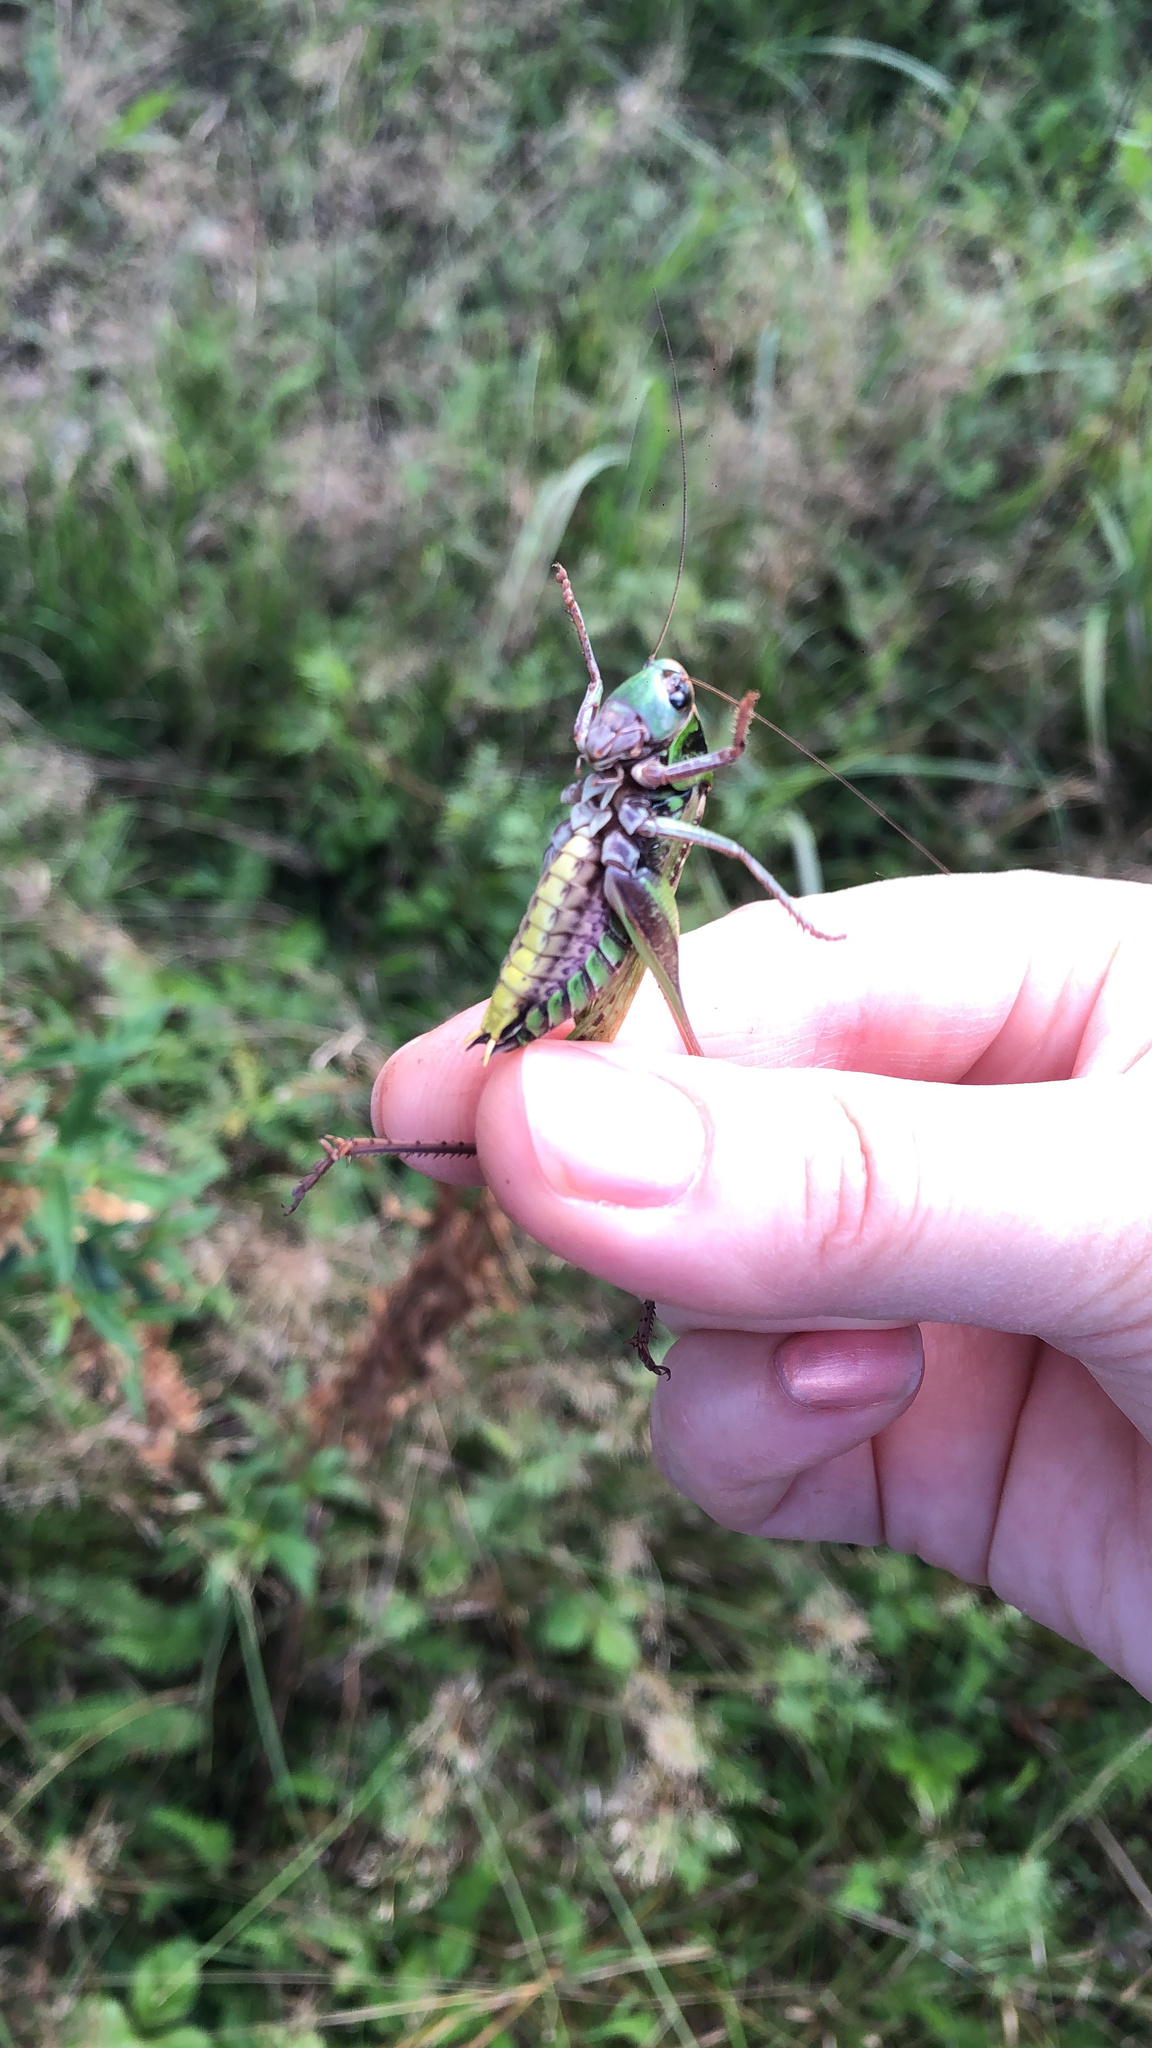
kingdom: Animalia
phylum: Arthropoda
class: Insecta
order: Orthoptera
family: Tettigoniidae
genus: Decticus
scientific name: Decticus verrucivorus
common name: Wart-biter
